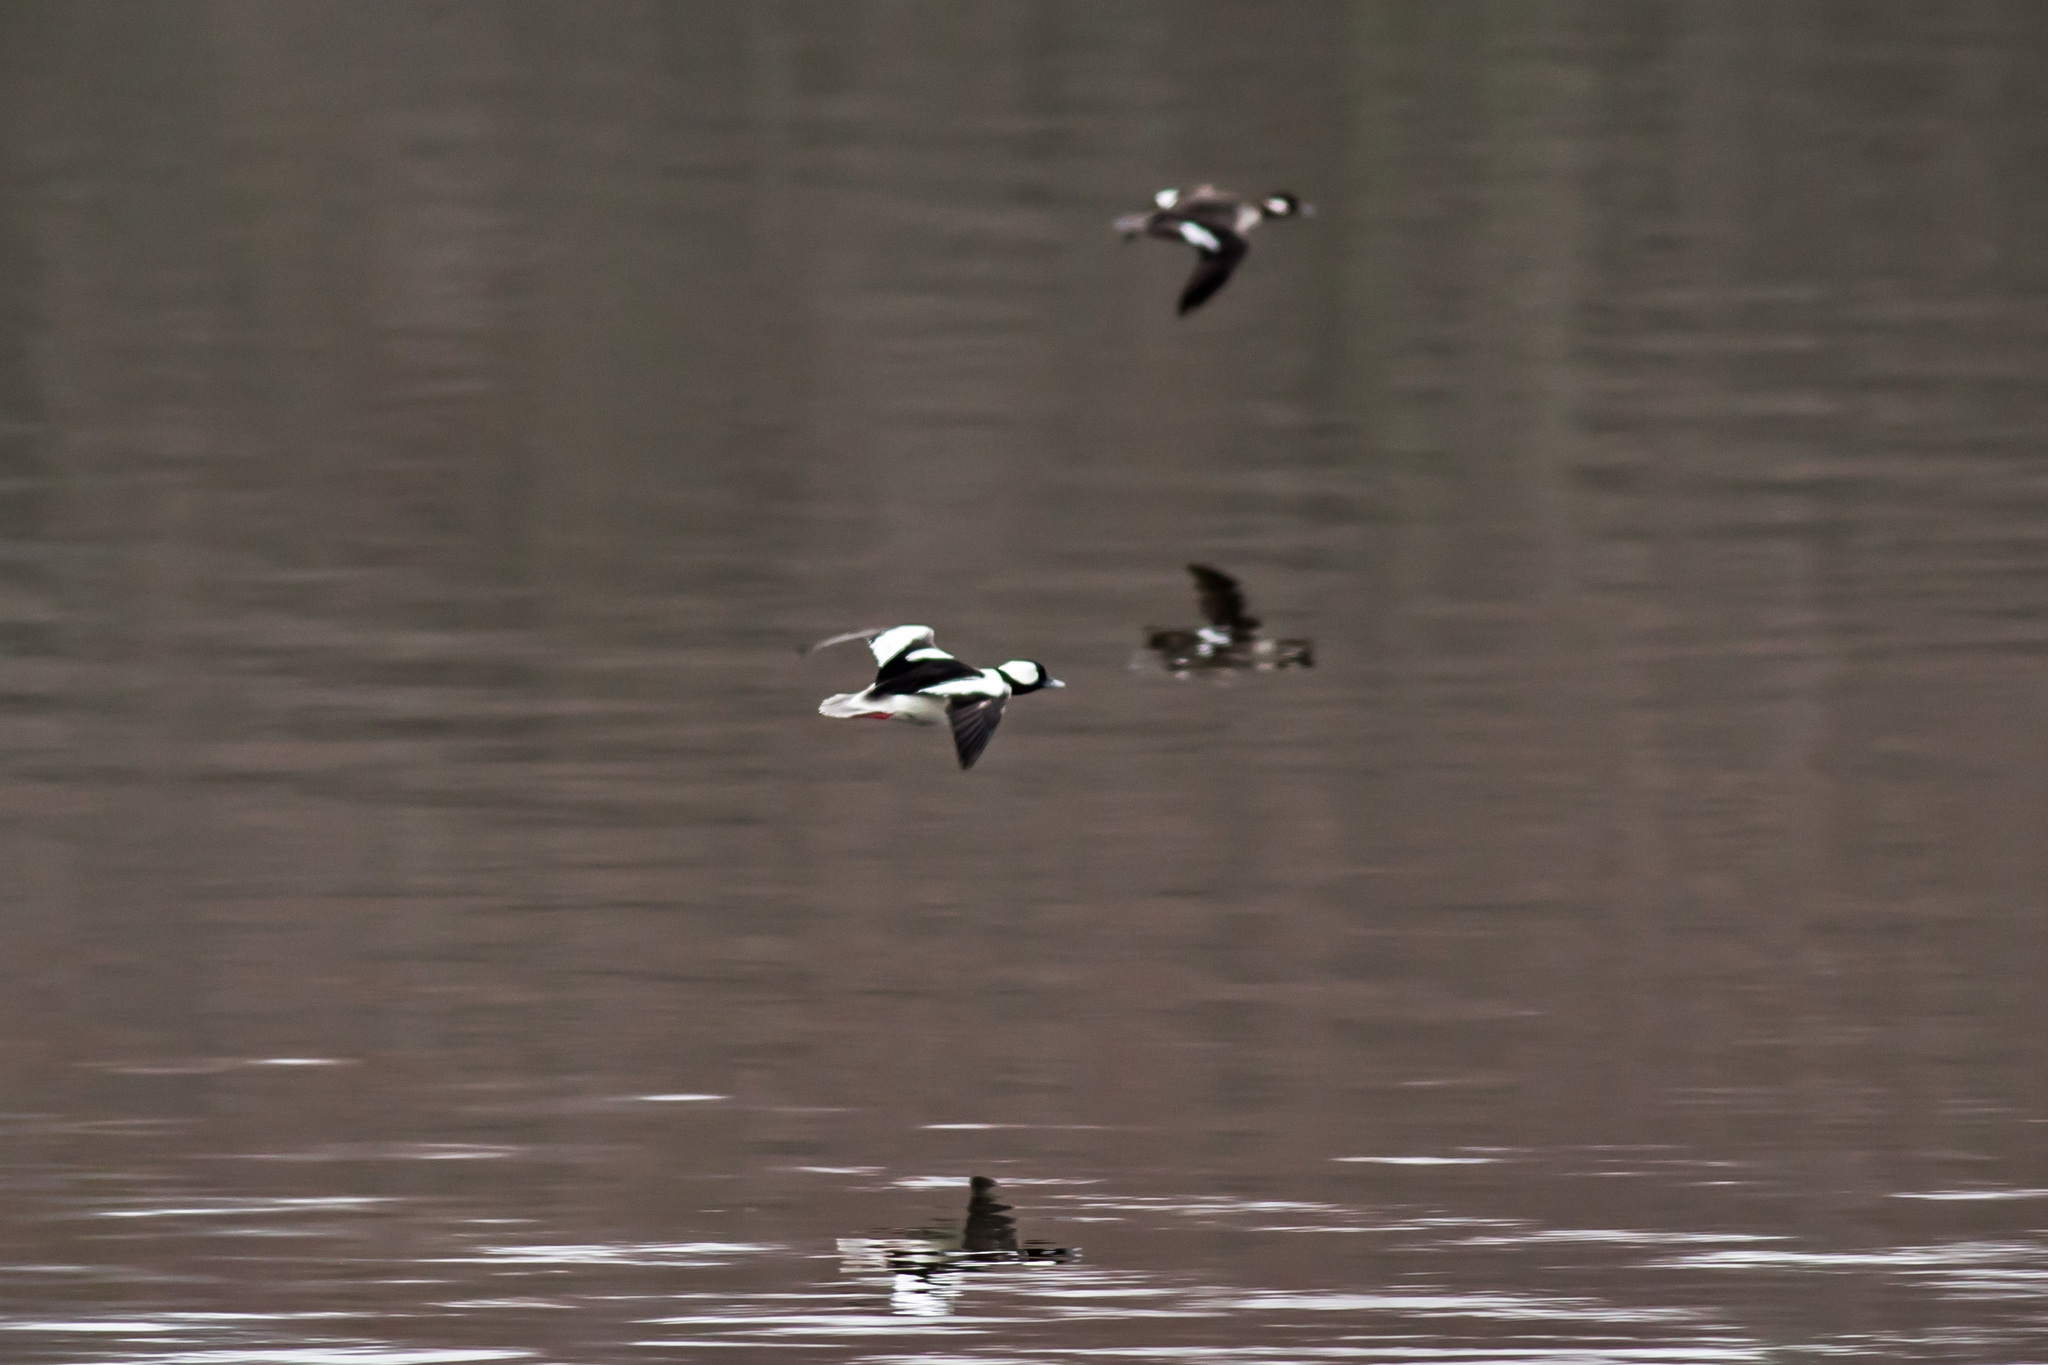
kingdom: Animalia
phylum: Chordata
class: Aves
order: Anseriformes
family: Anatidae
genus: Bucephala
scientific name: Bucephala albeola
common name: Bufflehead
